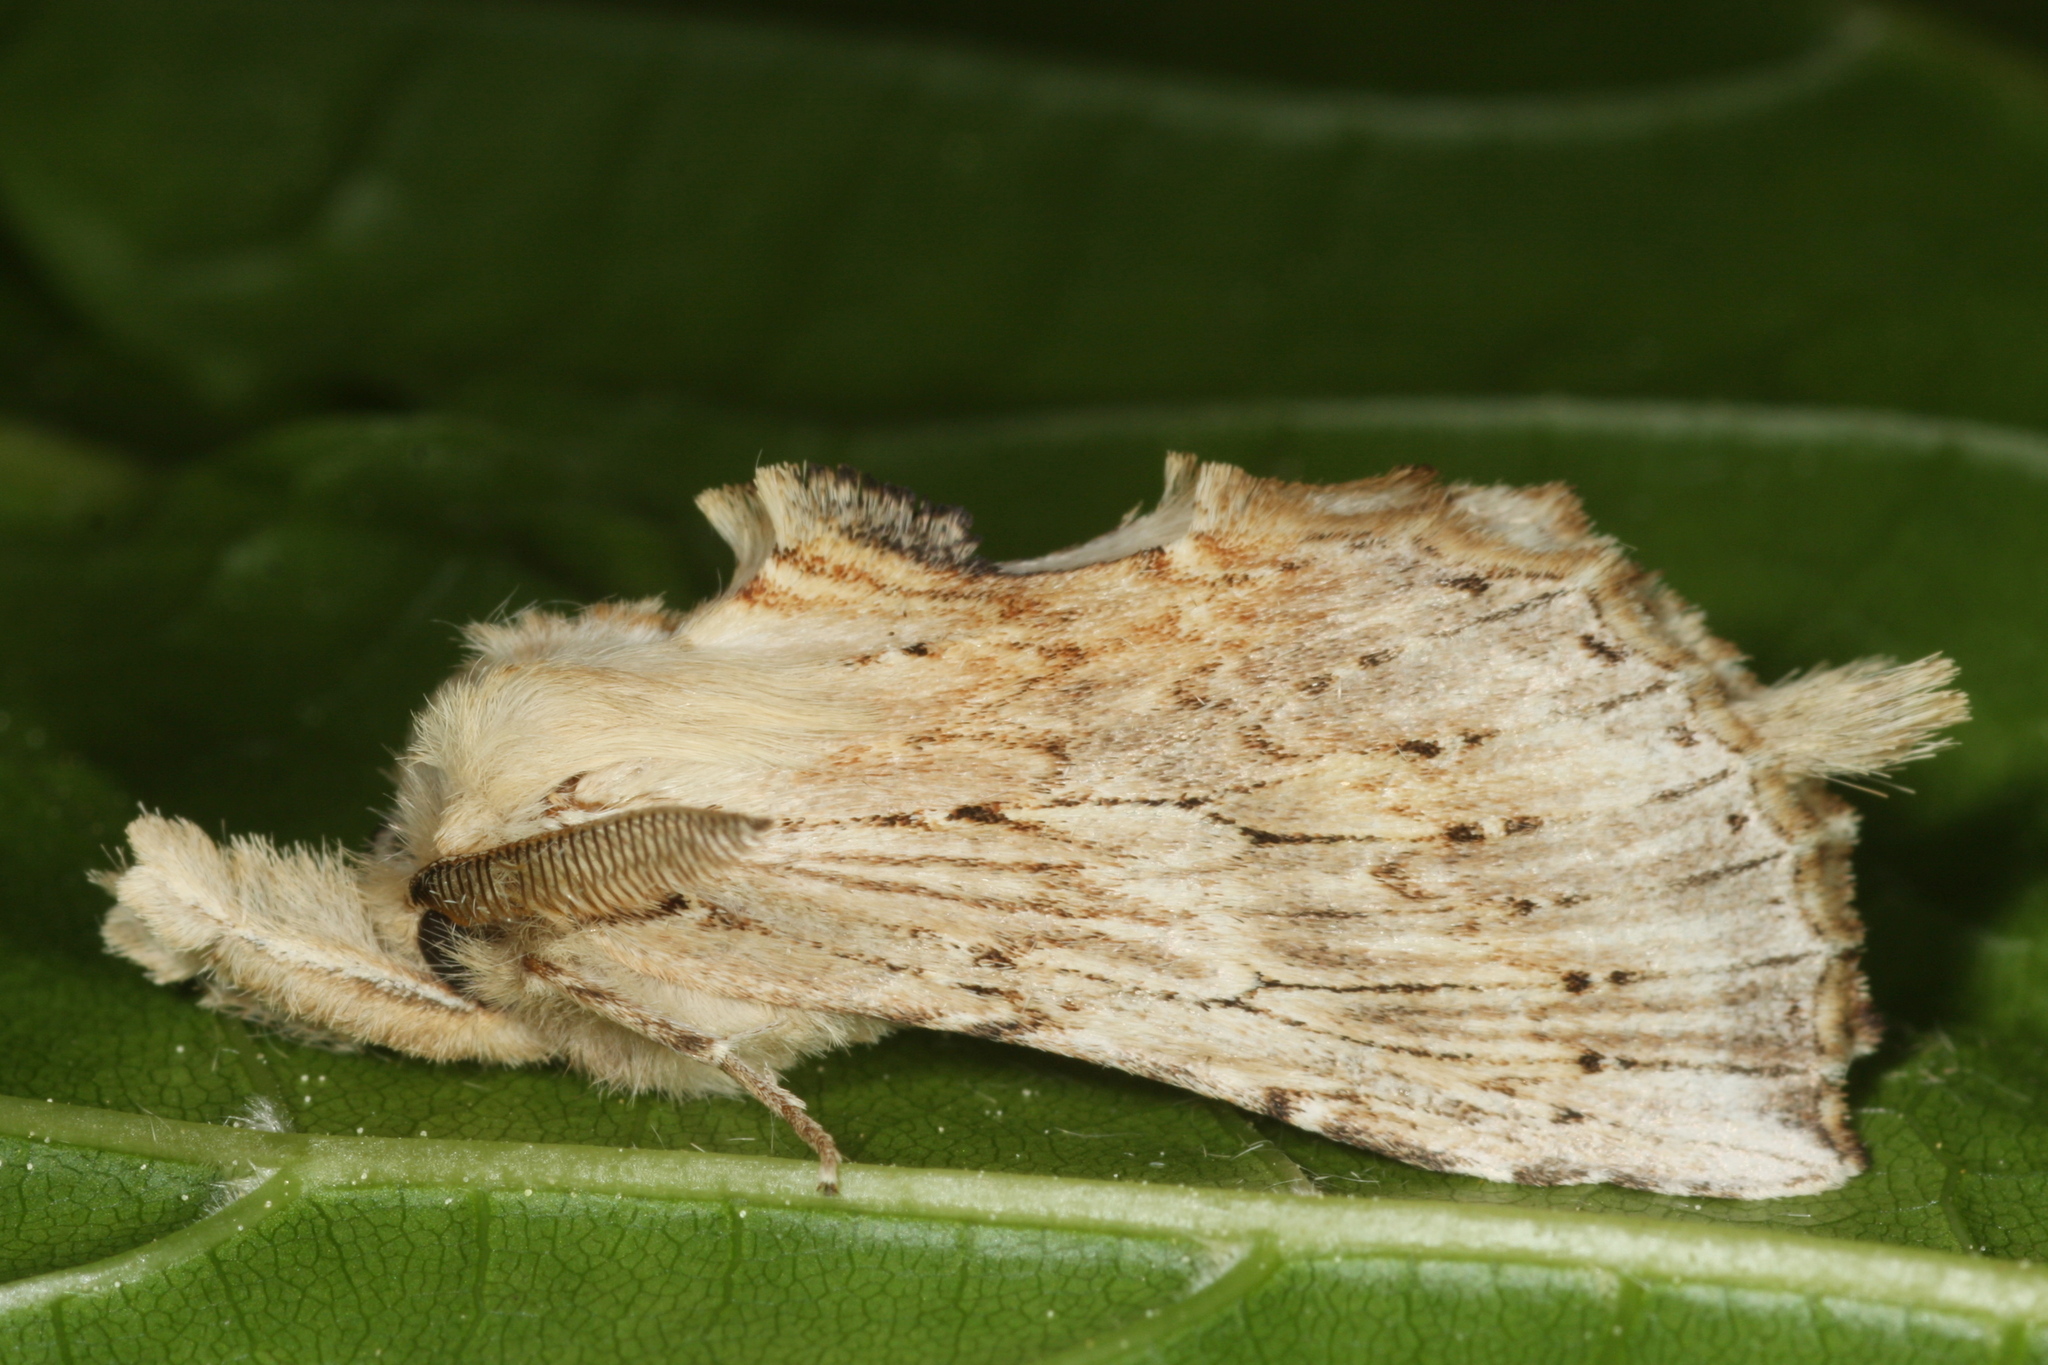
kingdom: Animalia
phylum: Arthropoda
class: Insecta
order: Lepidoptera
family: Notodontidae
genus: Pterostoma
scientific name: Pterostoma palpina
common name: Pale prominent
